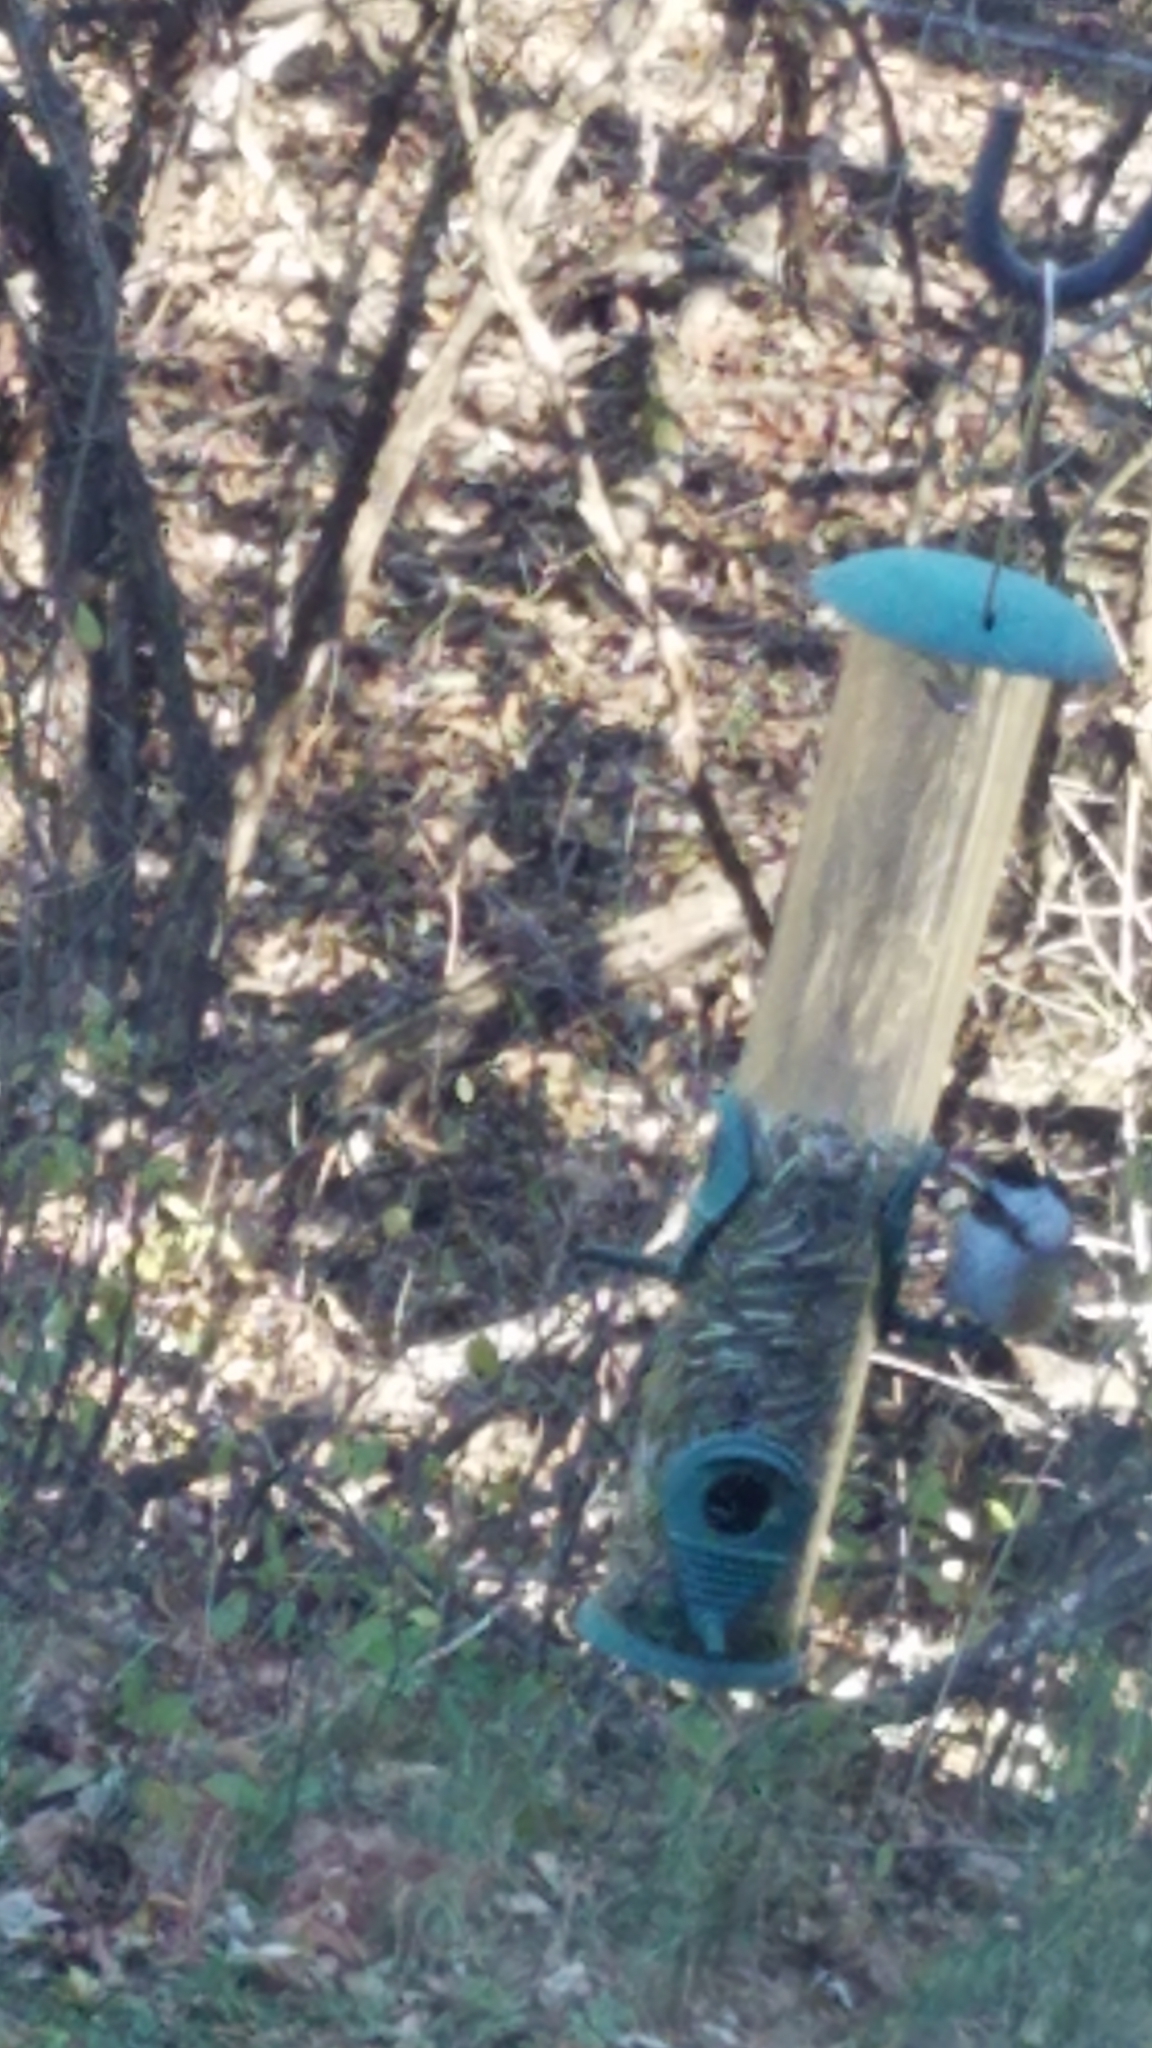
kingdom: Animalia
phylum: Chordata
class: Aves
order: Passeriformes
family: Paridae
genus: Poecile
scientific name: Poecile atricapillus
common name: Black-capped chickadee
